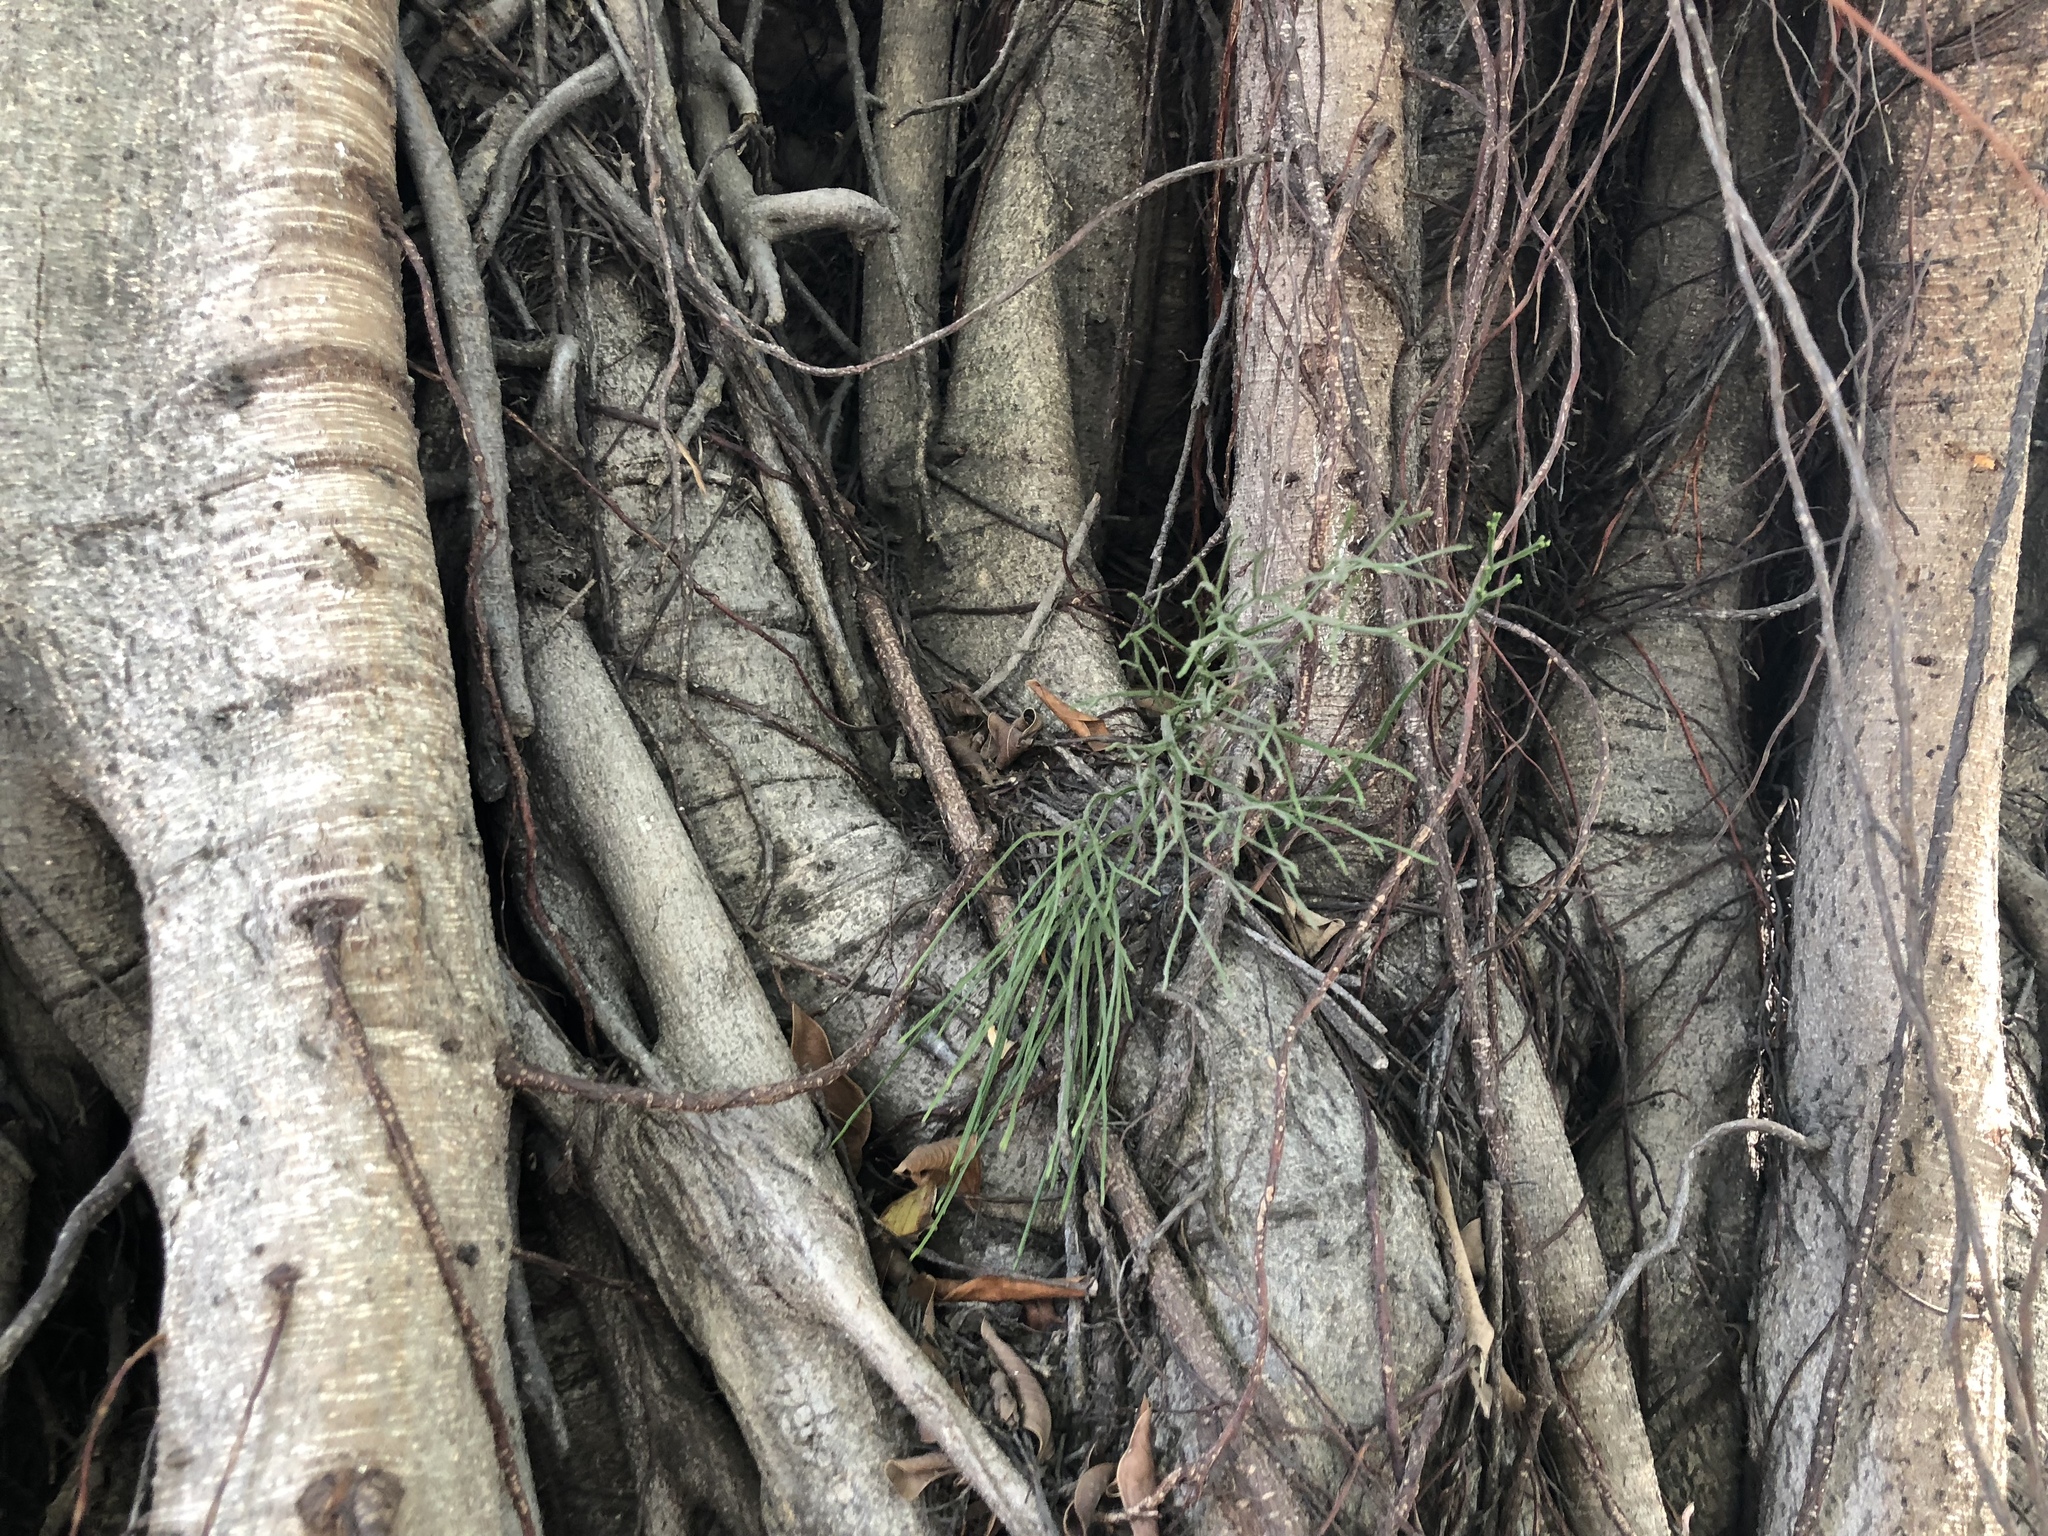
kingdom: Plantae
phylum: Tracheophyta
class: Polypodiopsida
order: Psilotales
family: Psilotaceae
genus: Psilotum
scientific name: Psilotum nudum
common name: Skeleton fork fern
